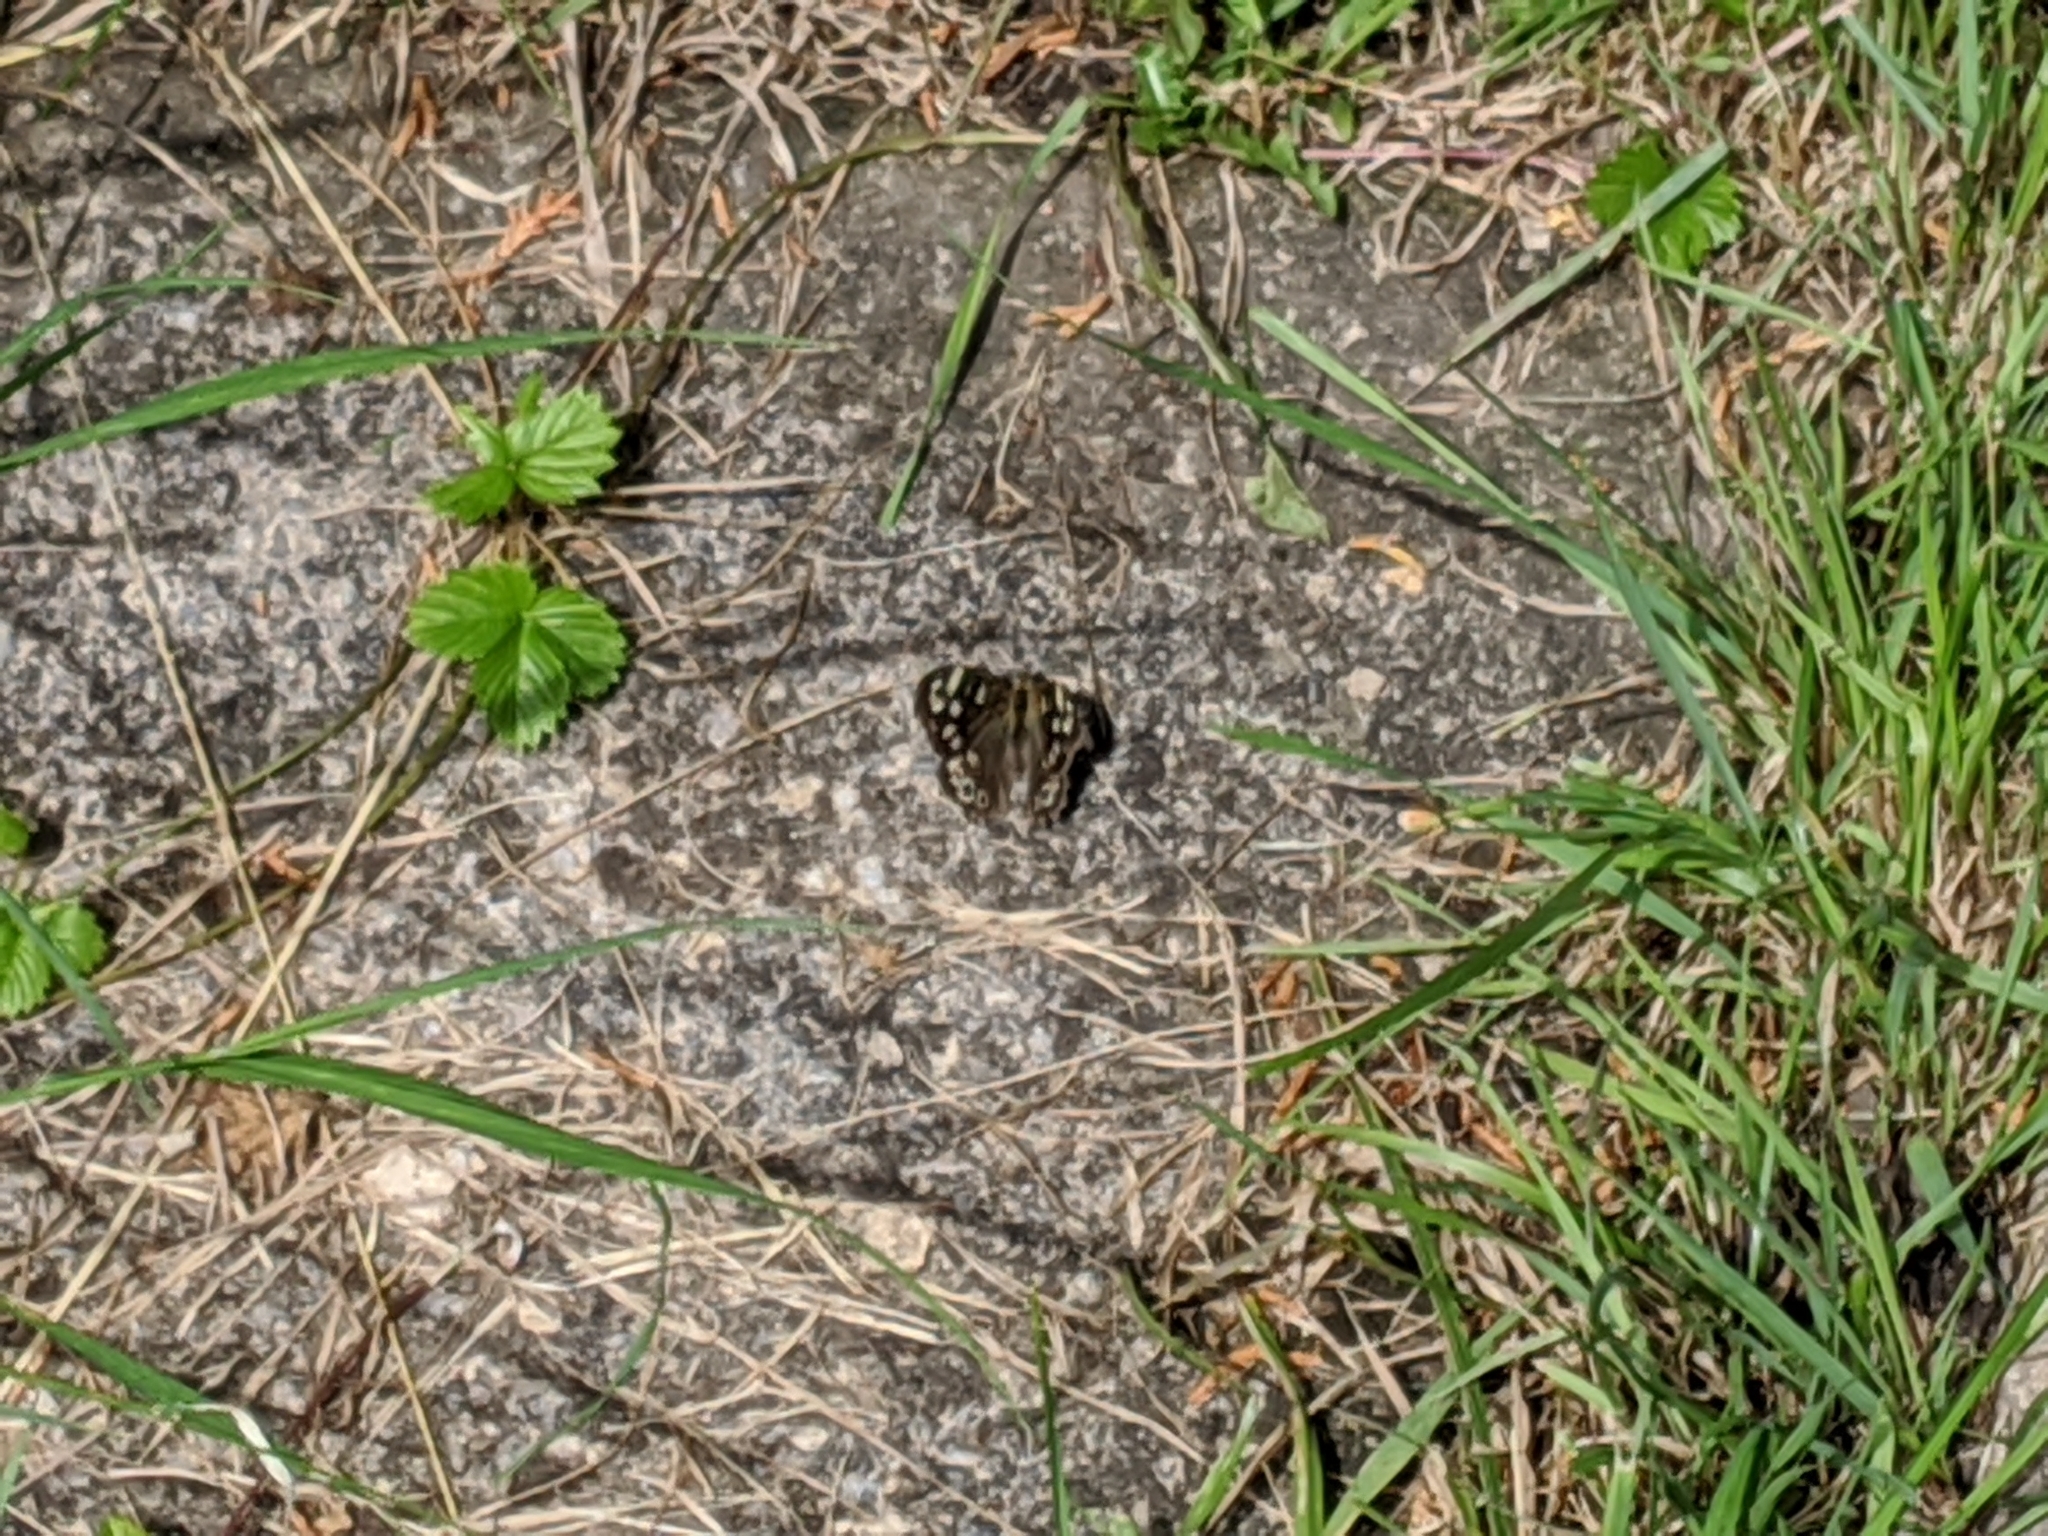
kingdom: Animalia
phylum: Arthropoda
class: Insecta
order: Lepidoptera
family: Nymphalidae
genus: Pararge
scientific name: Pararge aegeria
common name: Speckled wood
